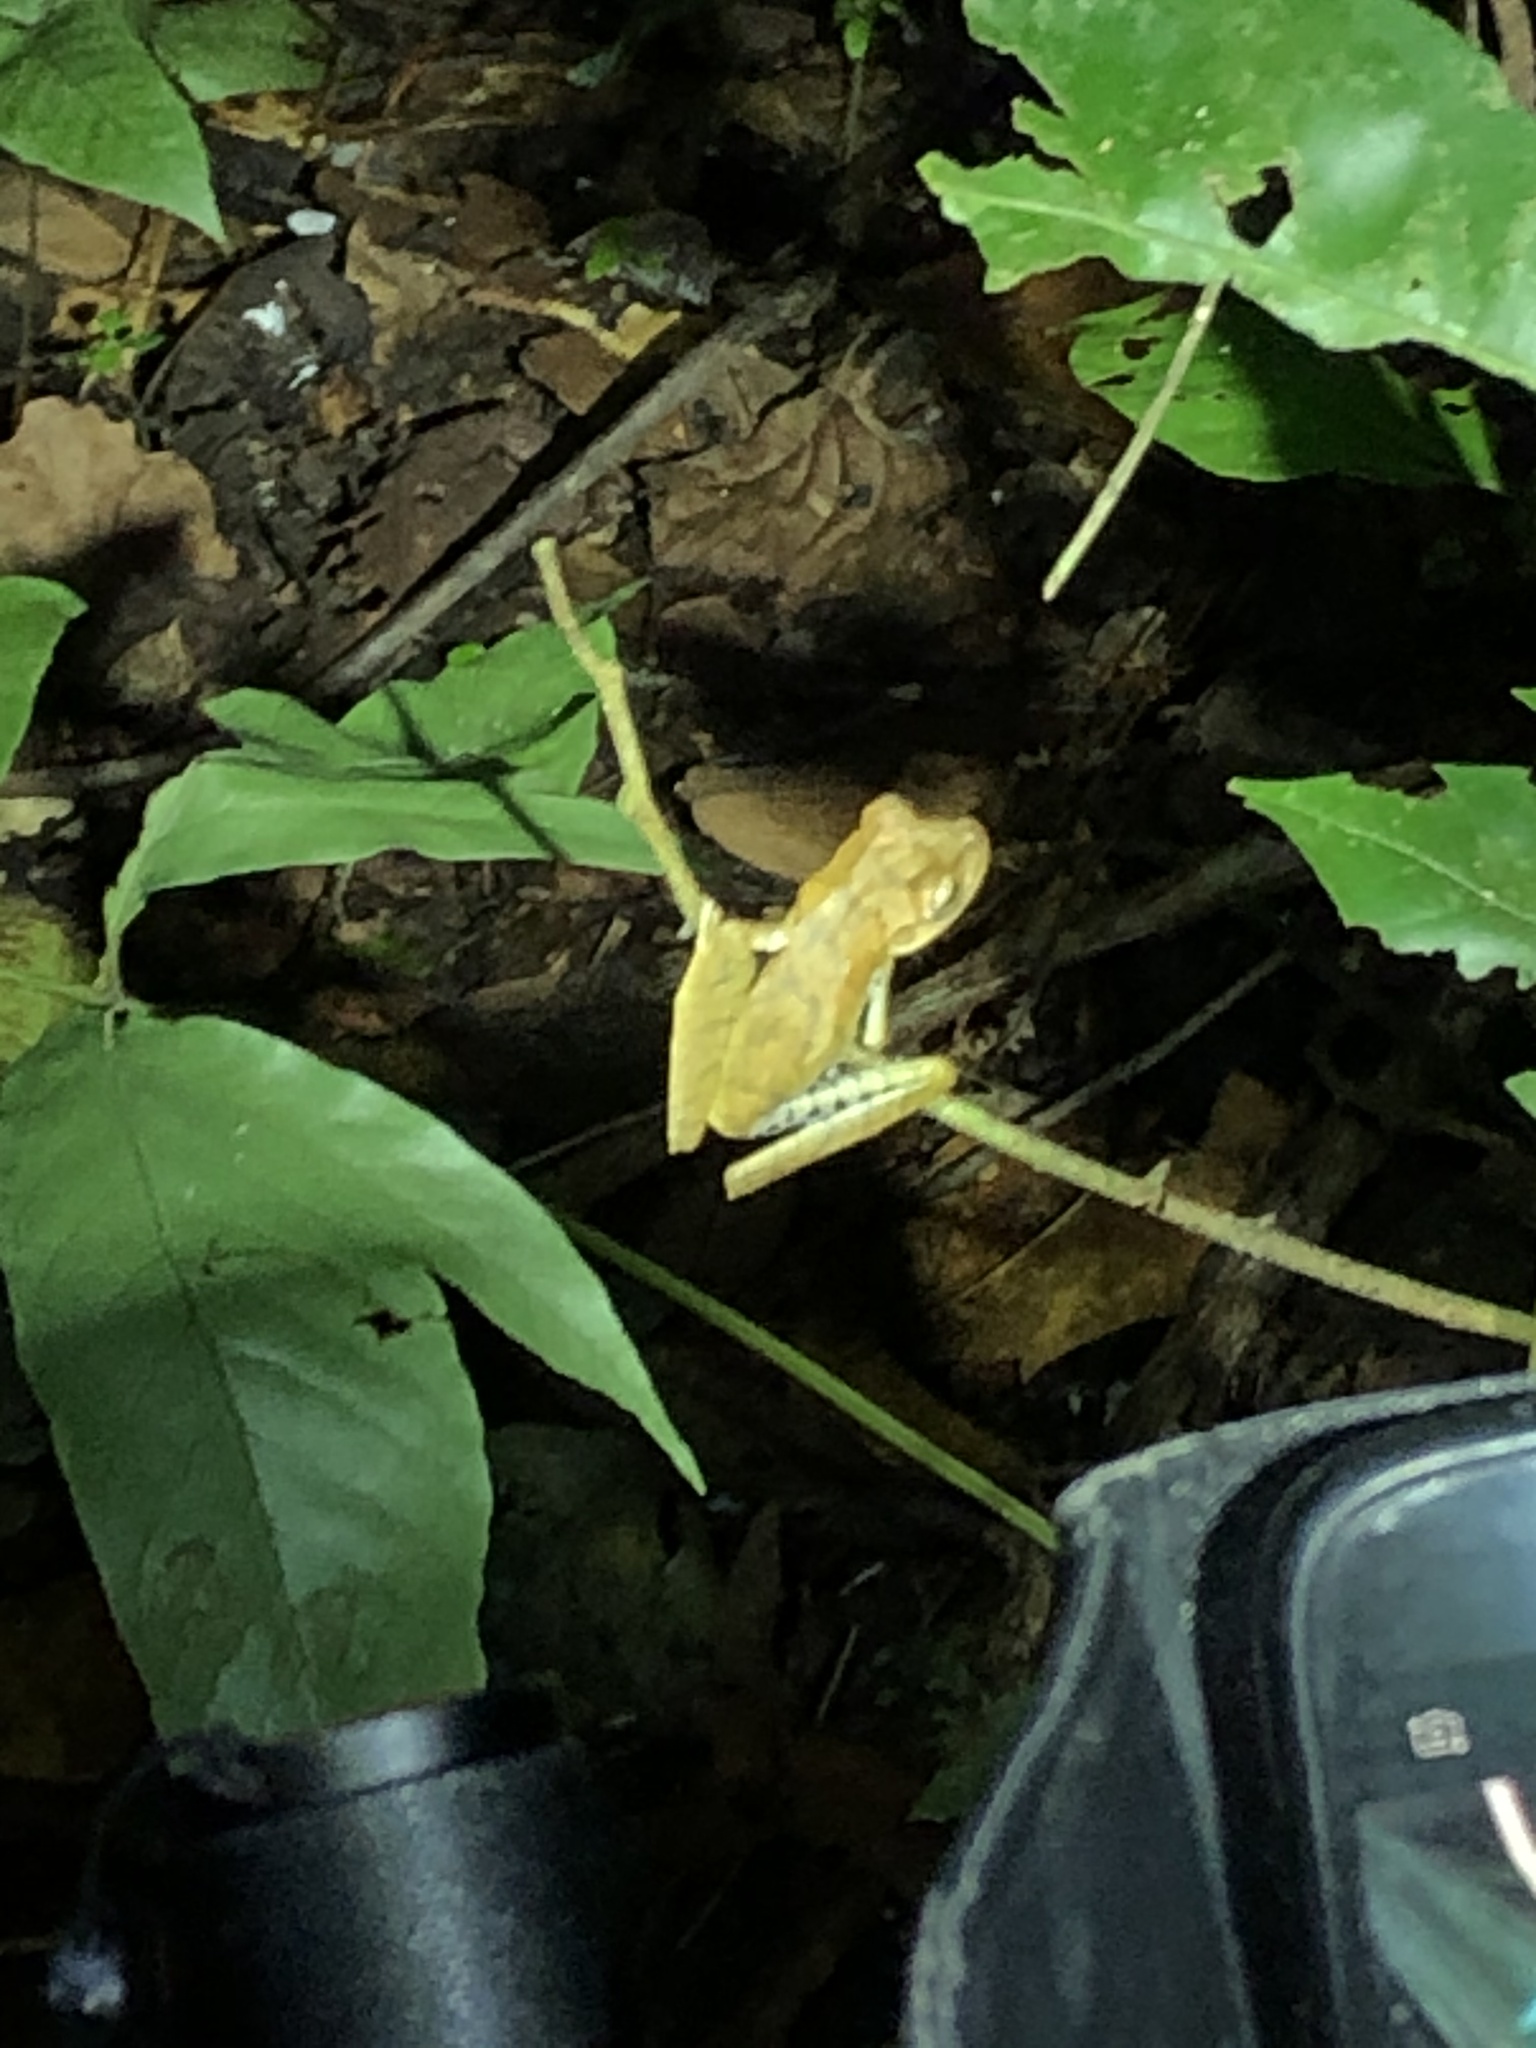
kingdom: Animalia
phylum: Chordata
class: Amphibia
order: Anura
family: Hylidae
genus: Boana
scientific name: Boana maculateralis
